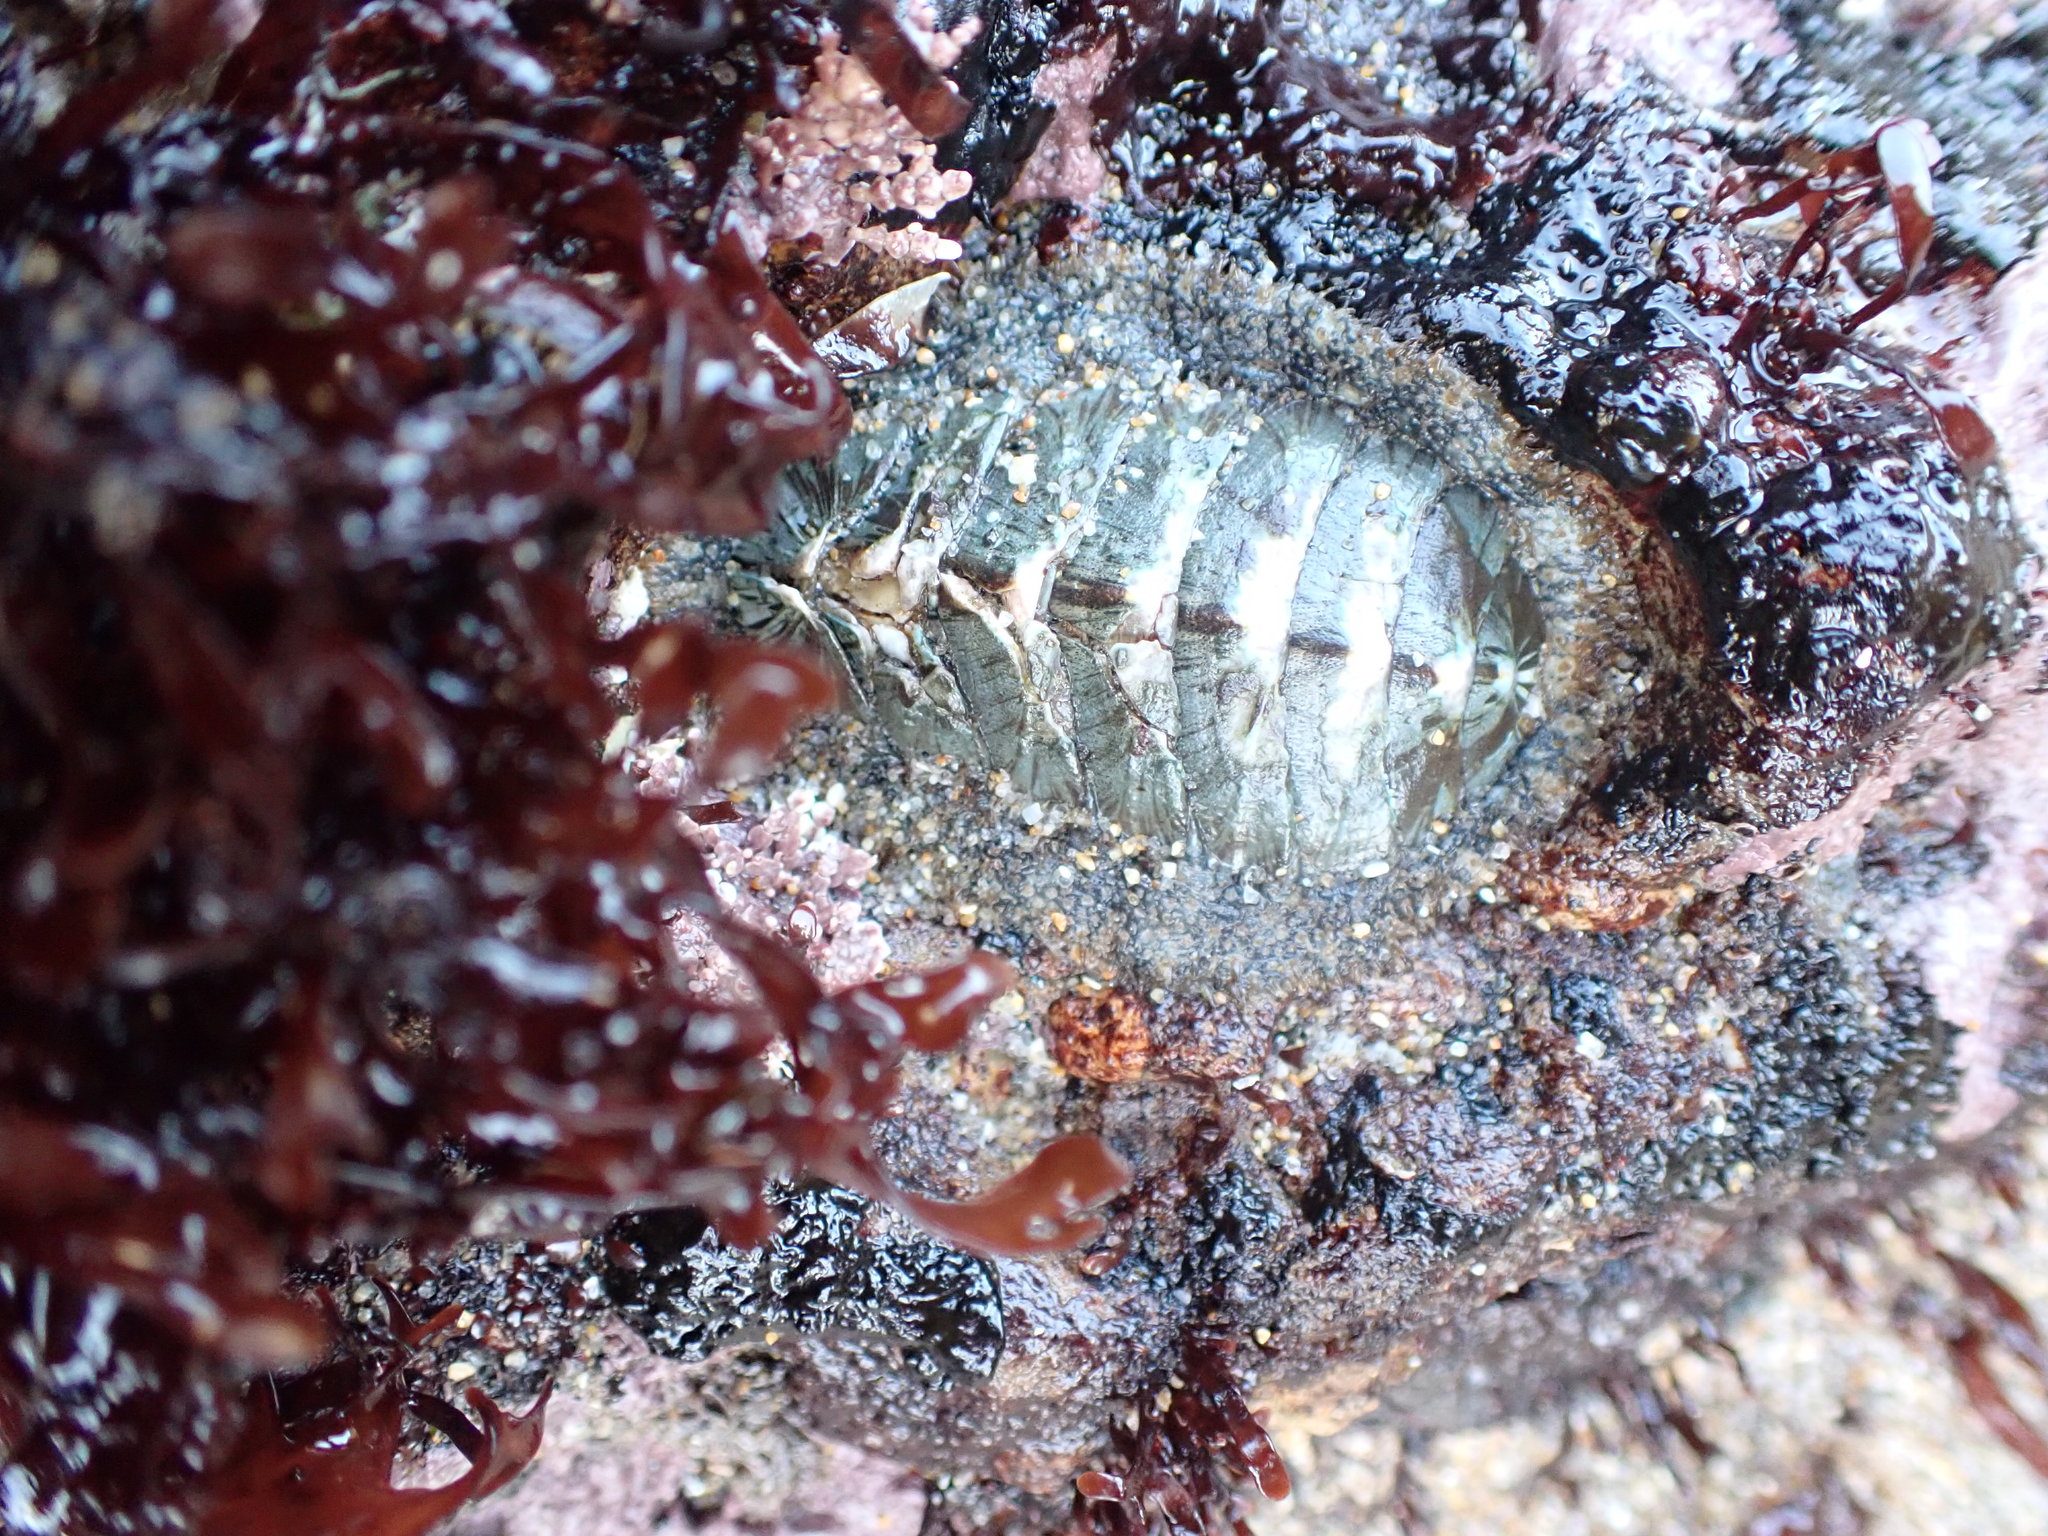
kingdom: Animalia
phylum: Mollusca
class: Polyplacophora
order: Chitonida
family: Mopaliidae
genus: Mopalia
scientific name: Mopalia lignosa
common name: Woody chiton
